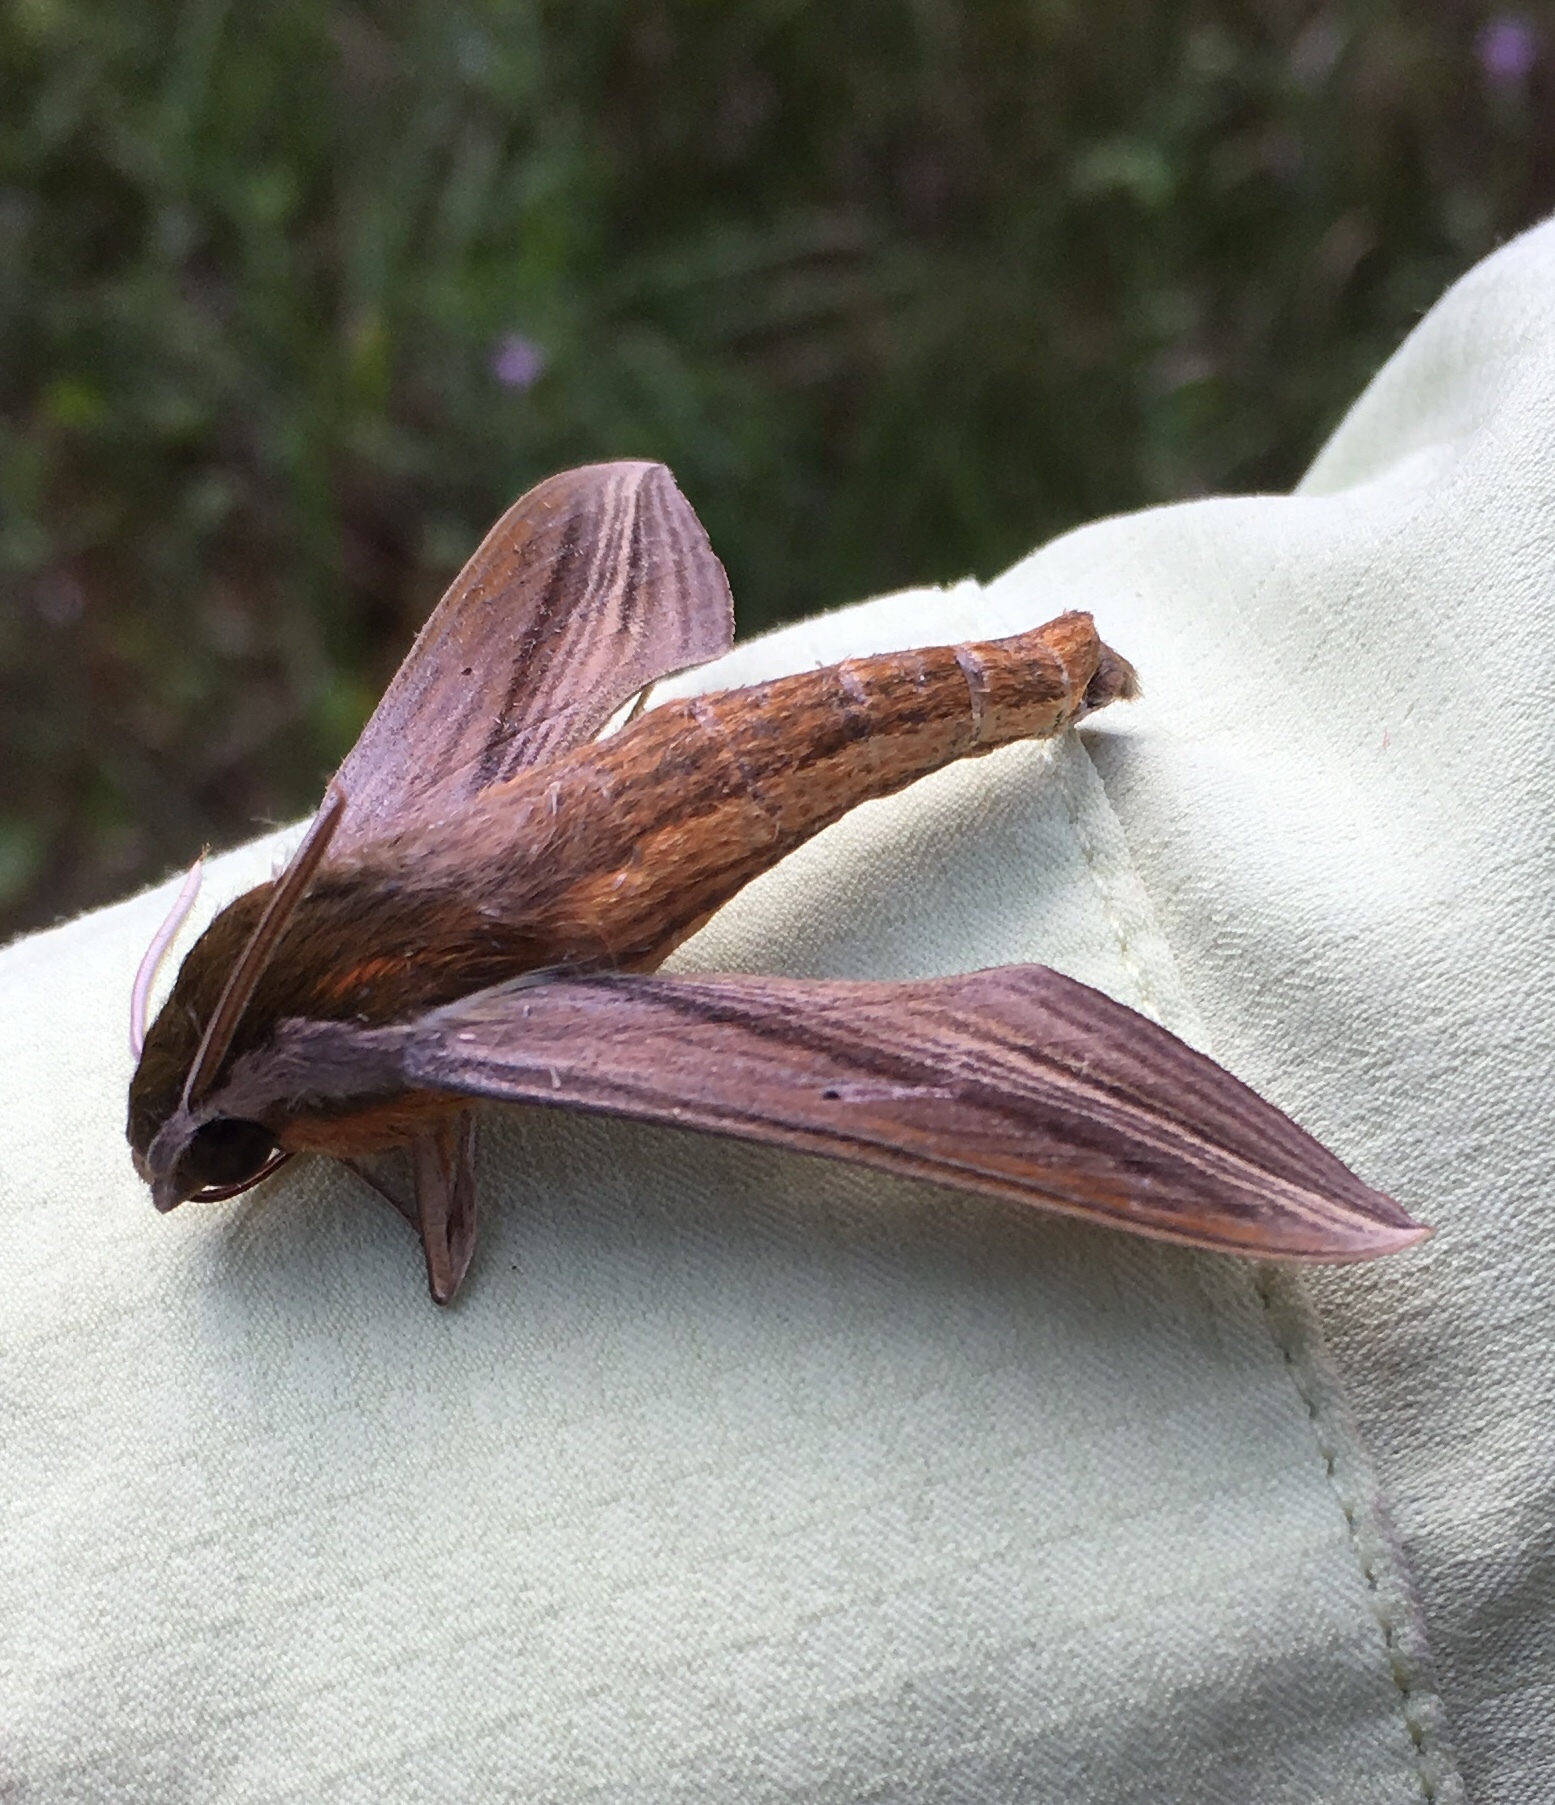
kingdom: Animalia
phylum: Arthropoda
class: Insecta
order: Lepidoptera
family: Sphingidae
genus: Xylophanes
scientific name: Xylophanes tersa
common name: Tersa sphinx
